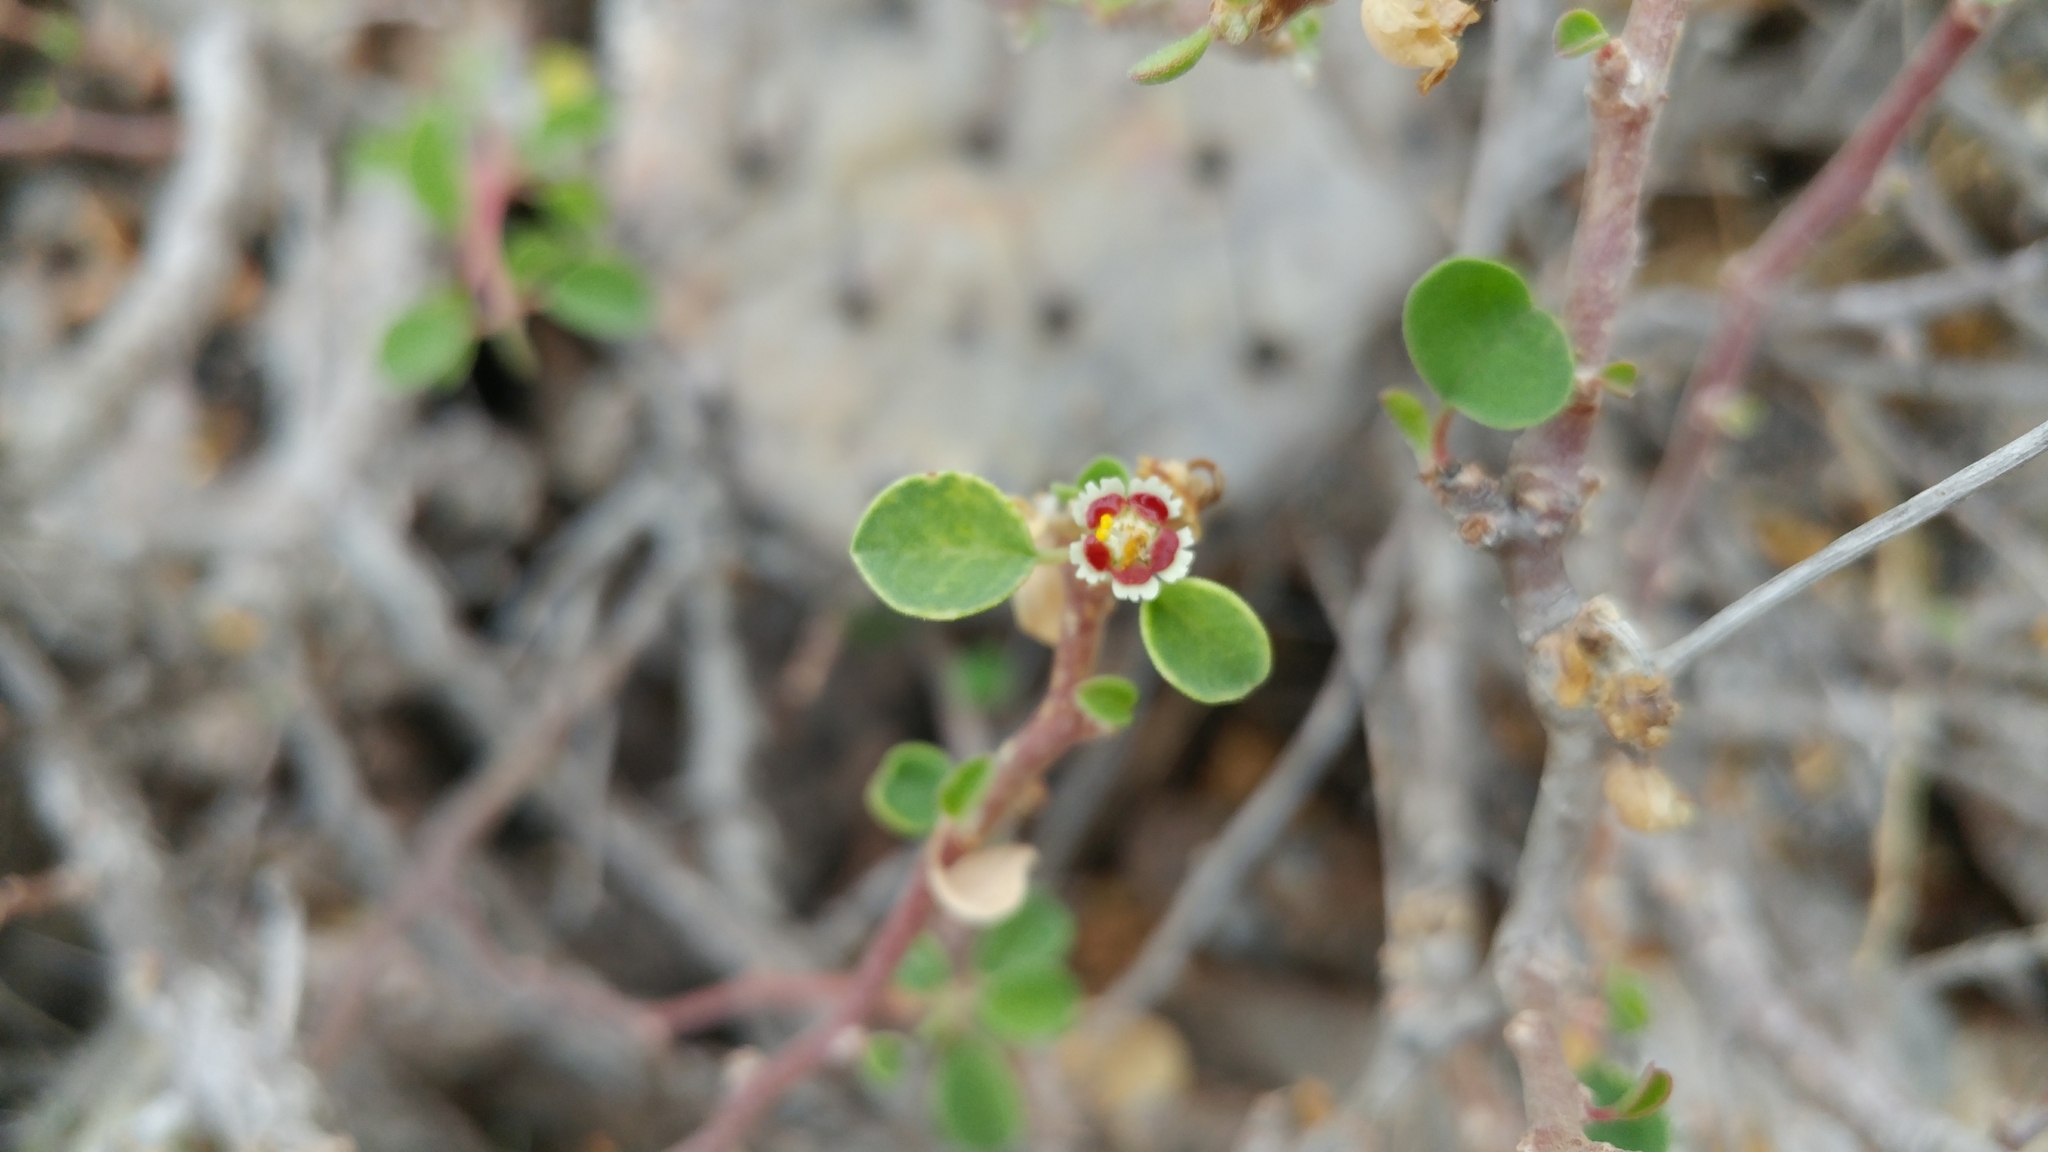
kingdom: Plantae
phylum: Tracheophyta
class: Magnoliopsida
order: Malpighiales
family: Euphorbiaceae
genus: Euphorbia
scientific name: Euphorbia misera
